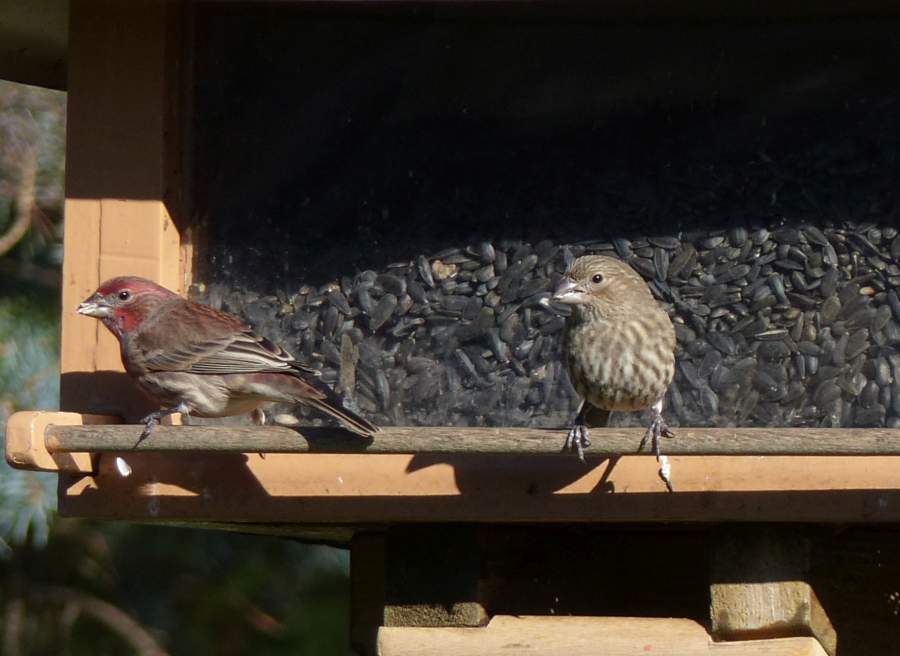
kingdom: Animalia
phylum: Chordata
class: Aves
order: Passeriformes
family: Fringillidae
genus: Haemorhous
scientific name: Haemorhous mexicanus
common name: House finch
